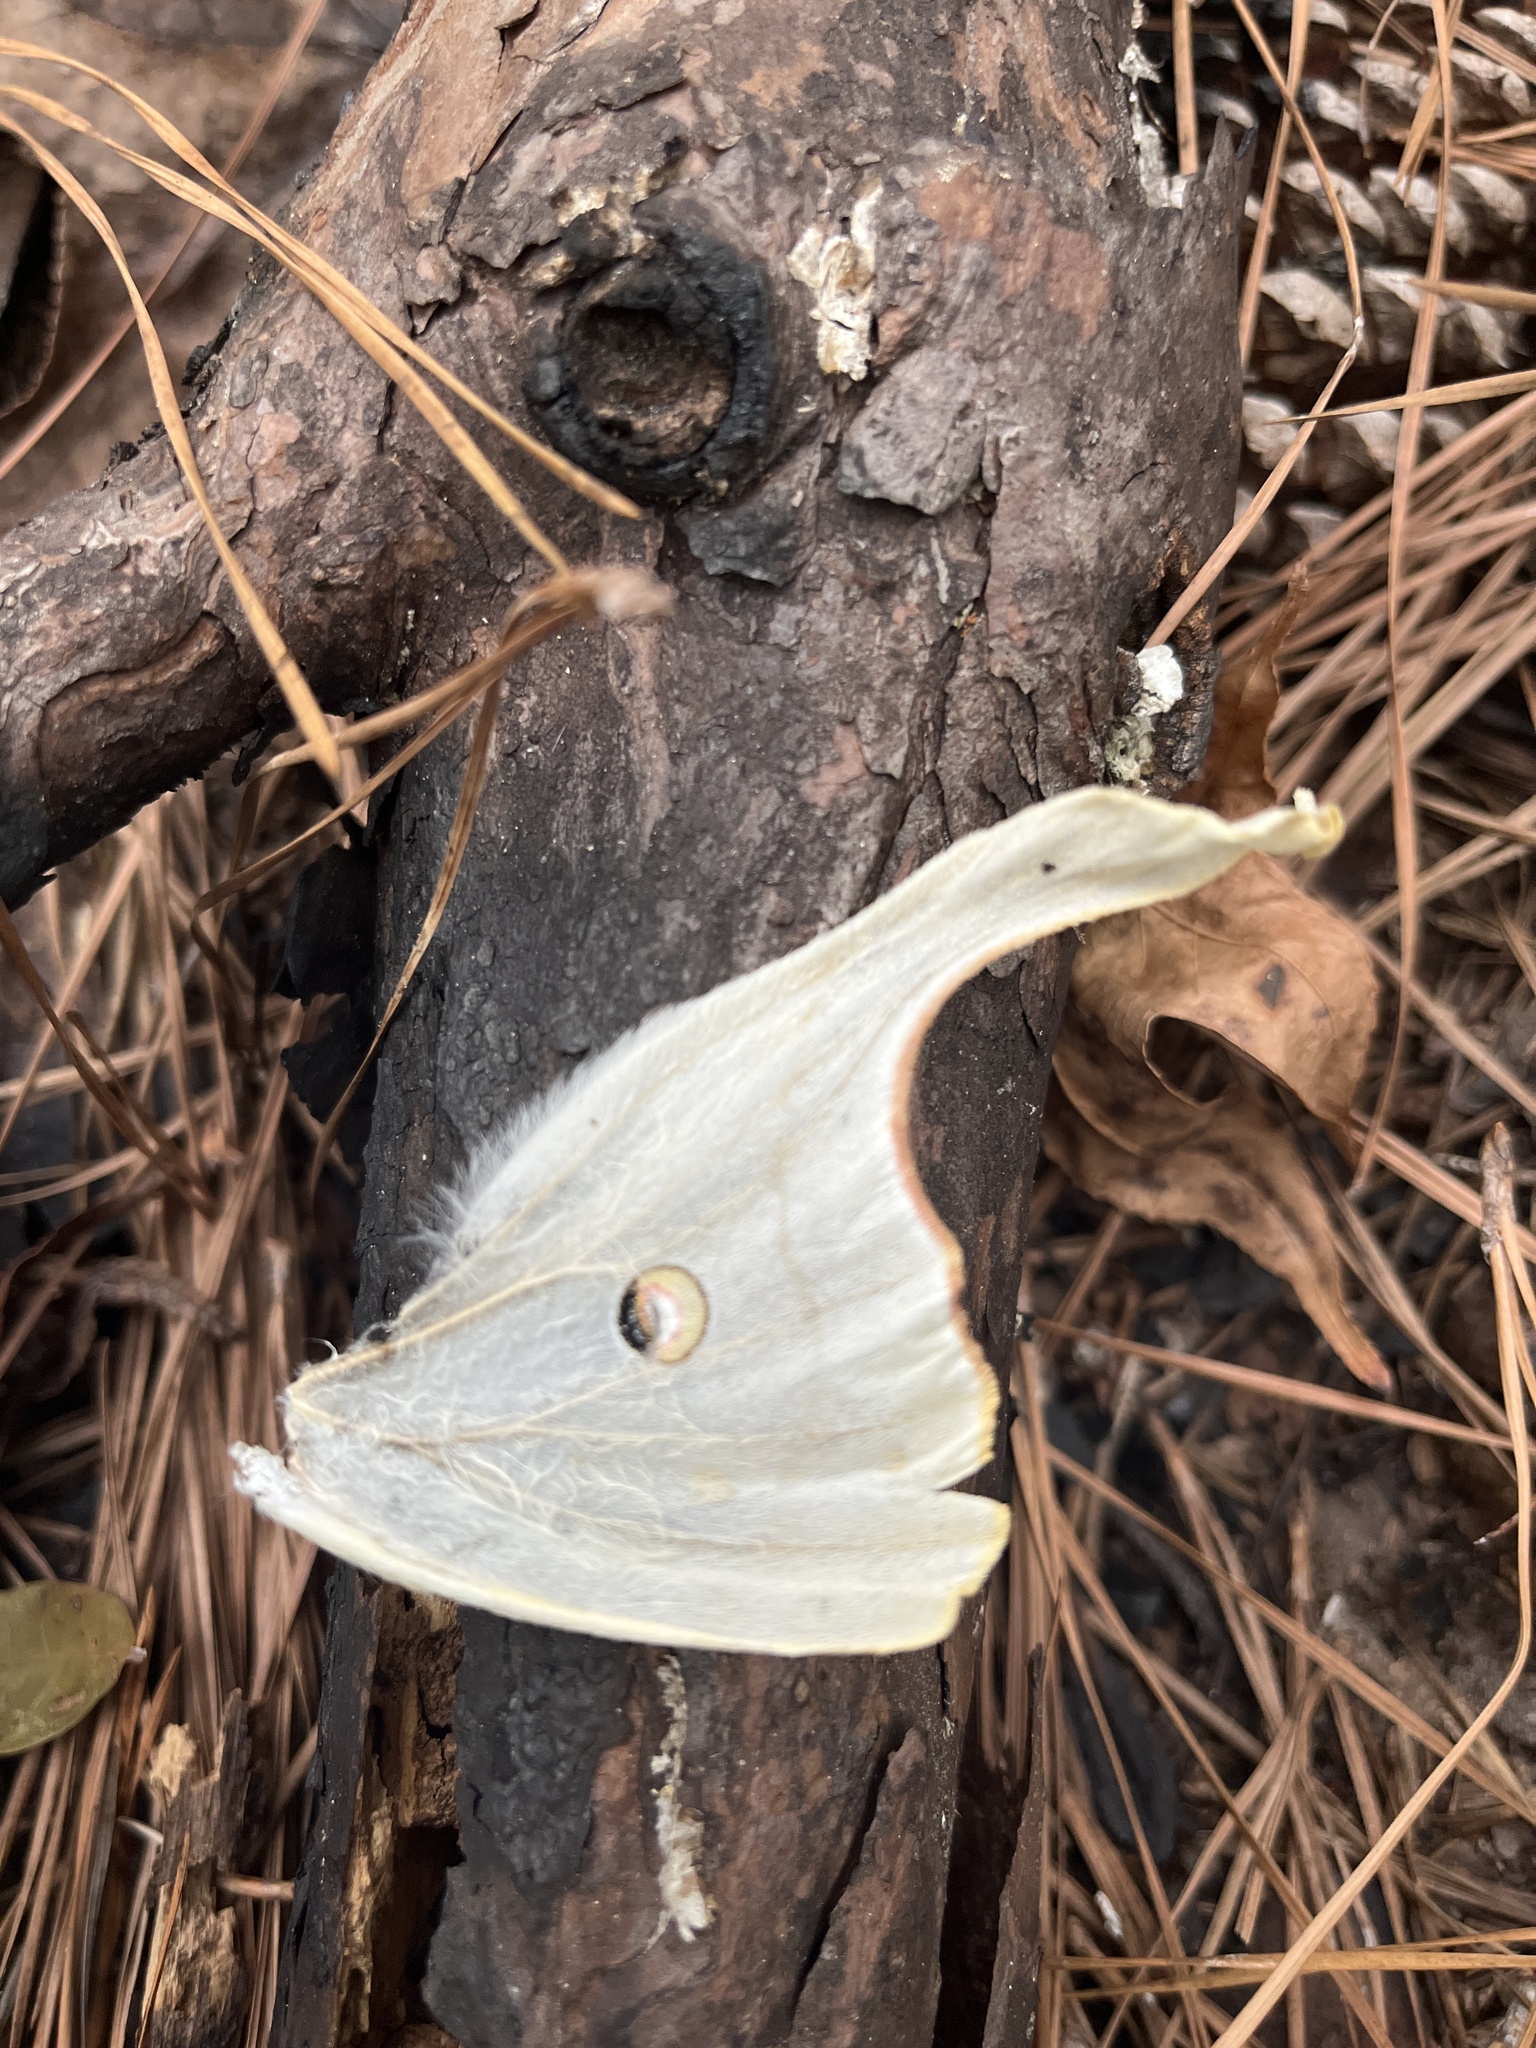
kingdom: Animalia
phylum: Arthropoda
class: Insecta
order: Lepidoptera
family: Saturniidae
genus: Actias
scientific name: Actias luna
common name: Luna moth
